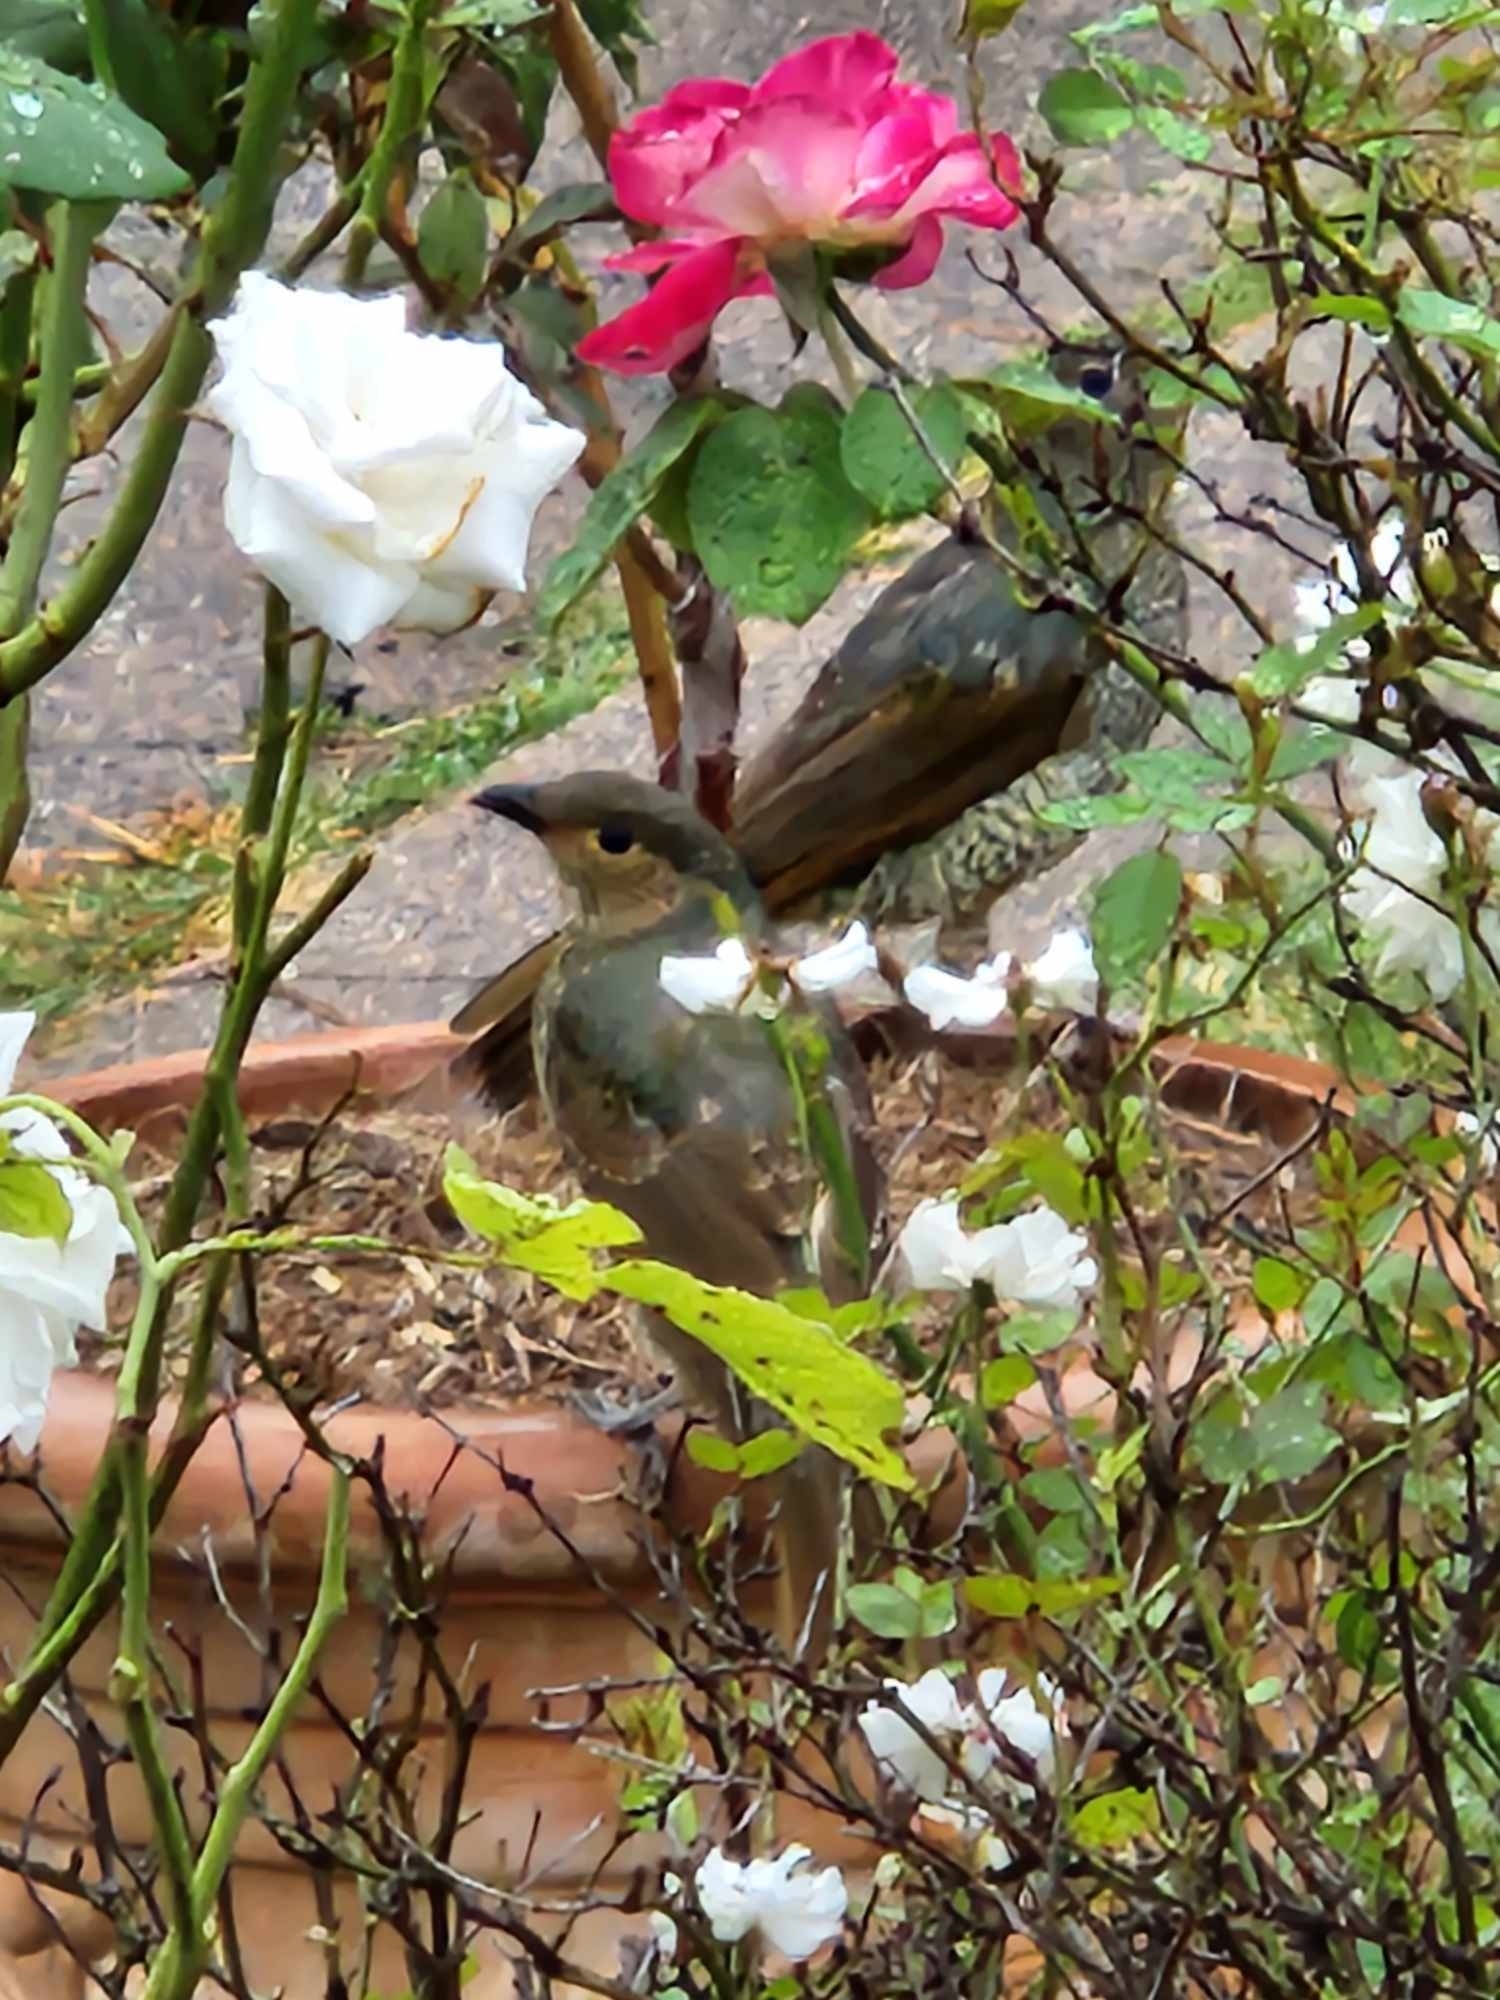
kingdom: Animalia
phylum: Chordata
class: Aves
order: Passeriformes
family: Ptilonorhynchidae
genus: Ptilonorhynchus
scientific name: Ptilonorhynchus violaceus
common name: Satin bowerbird
